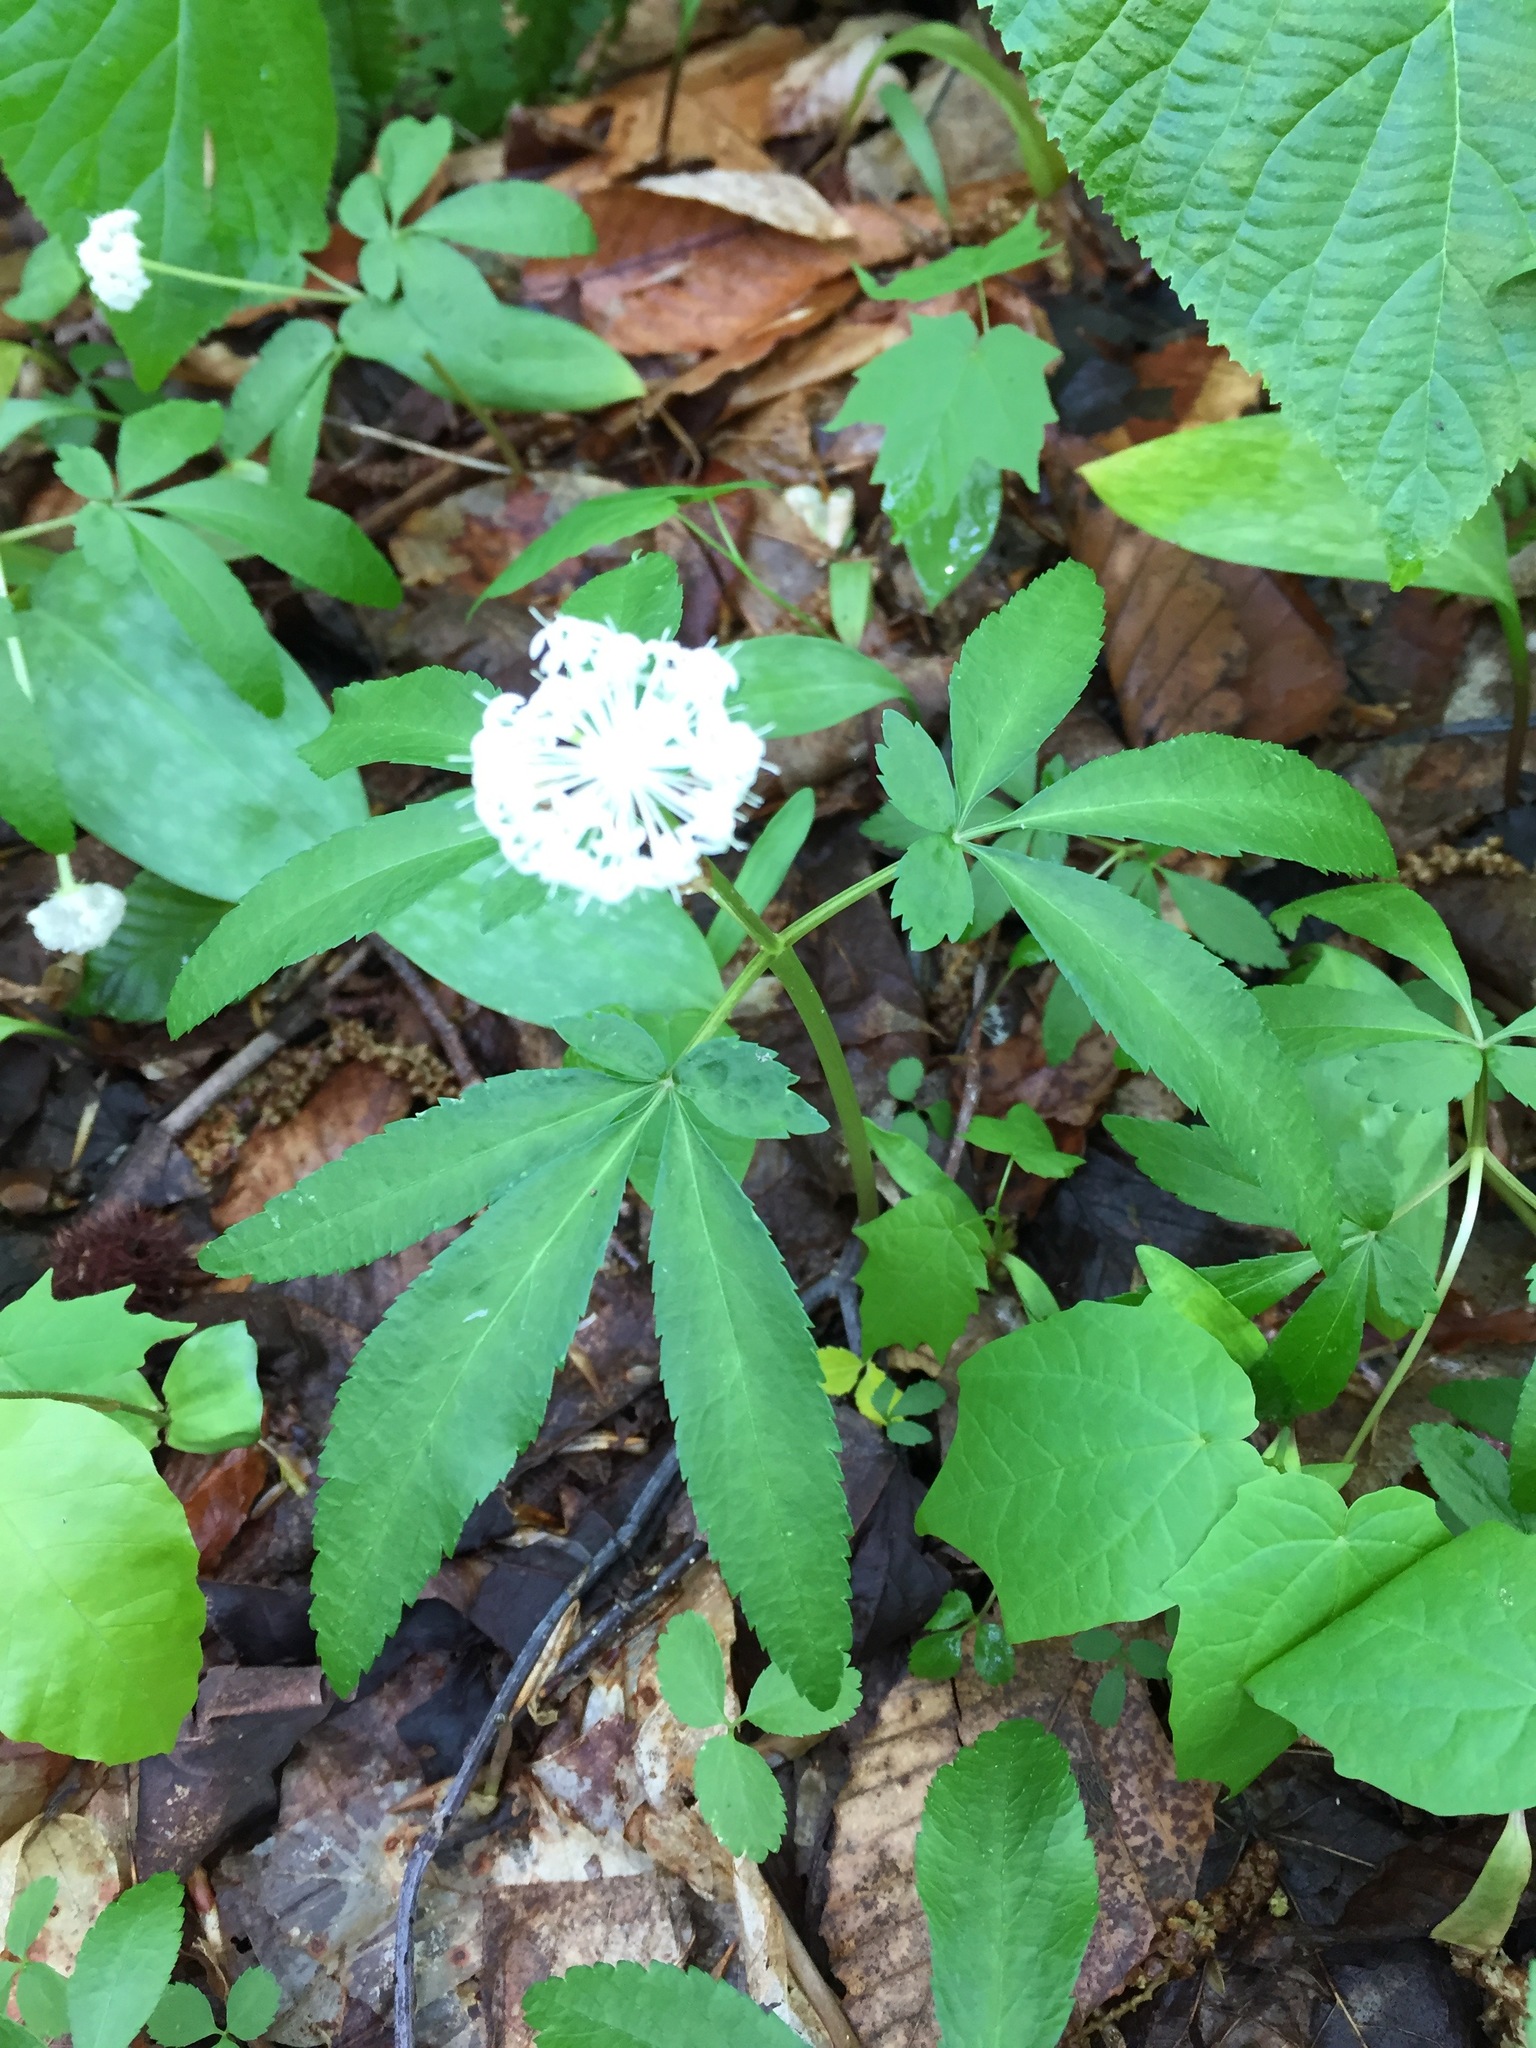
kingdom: Plantae
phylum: Tracheophyta
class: Magnoliopsida
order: Apiales
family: Araliaceae
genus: Panax
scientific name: Panax trifolius
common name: Dwarf ginseng
